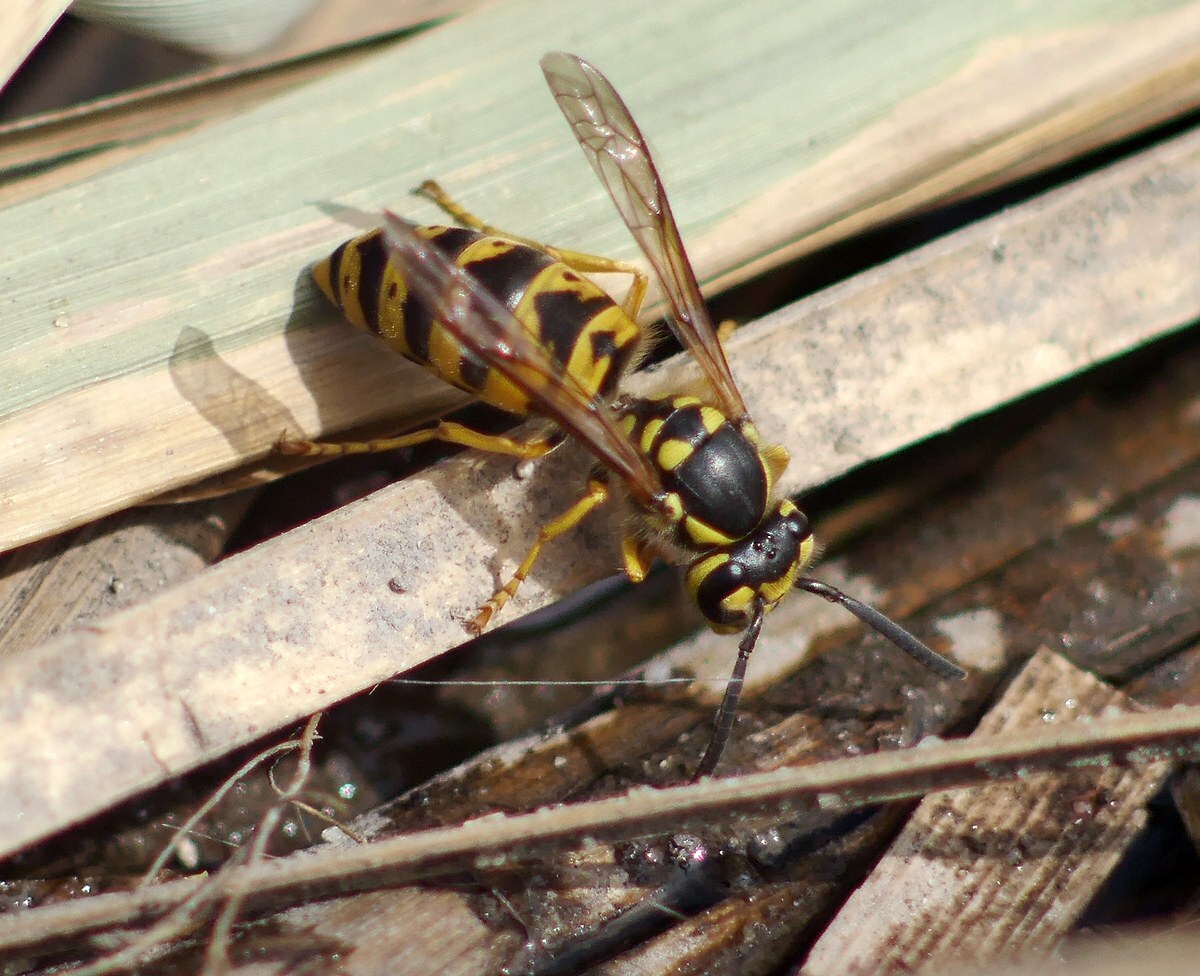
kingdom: Animalia
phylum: Arthropoda
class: Insecta
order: Hymenoptera
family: Vespidae
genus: Vespula
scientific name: Vespula germanica
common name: German wasp
